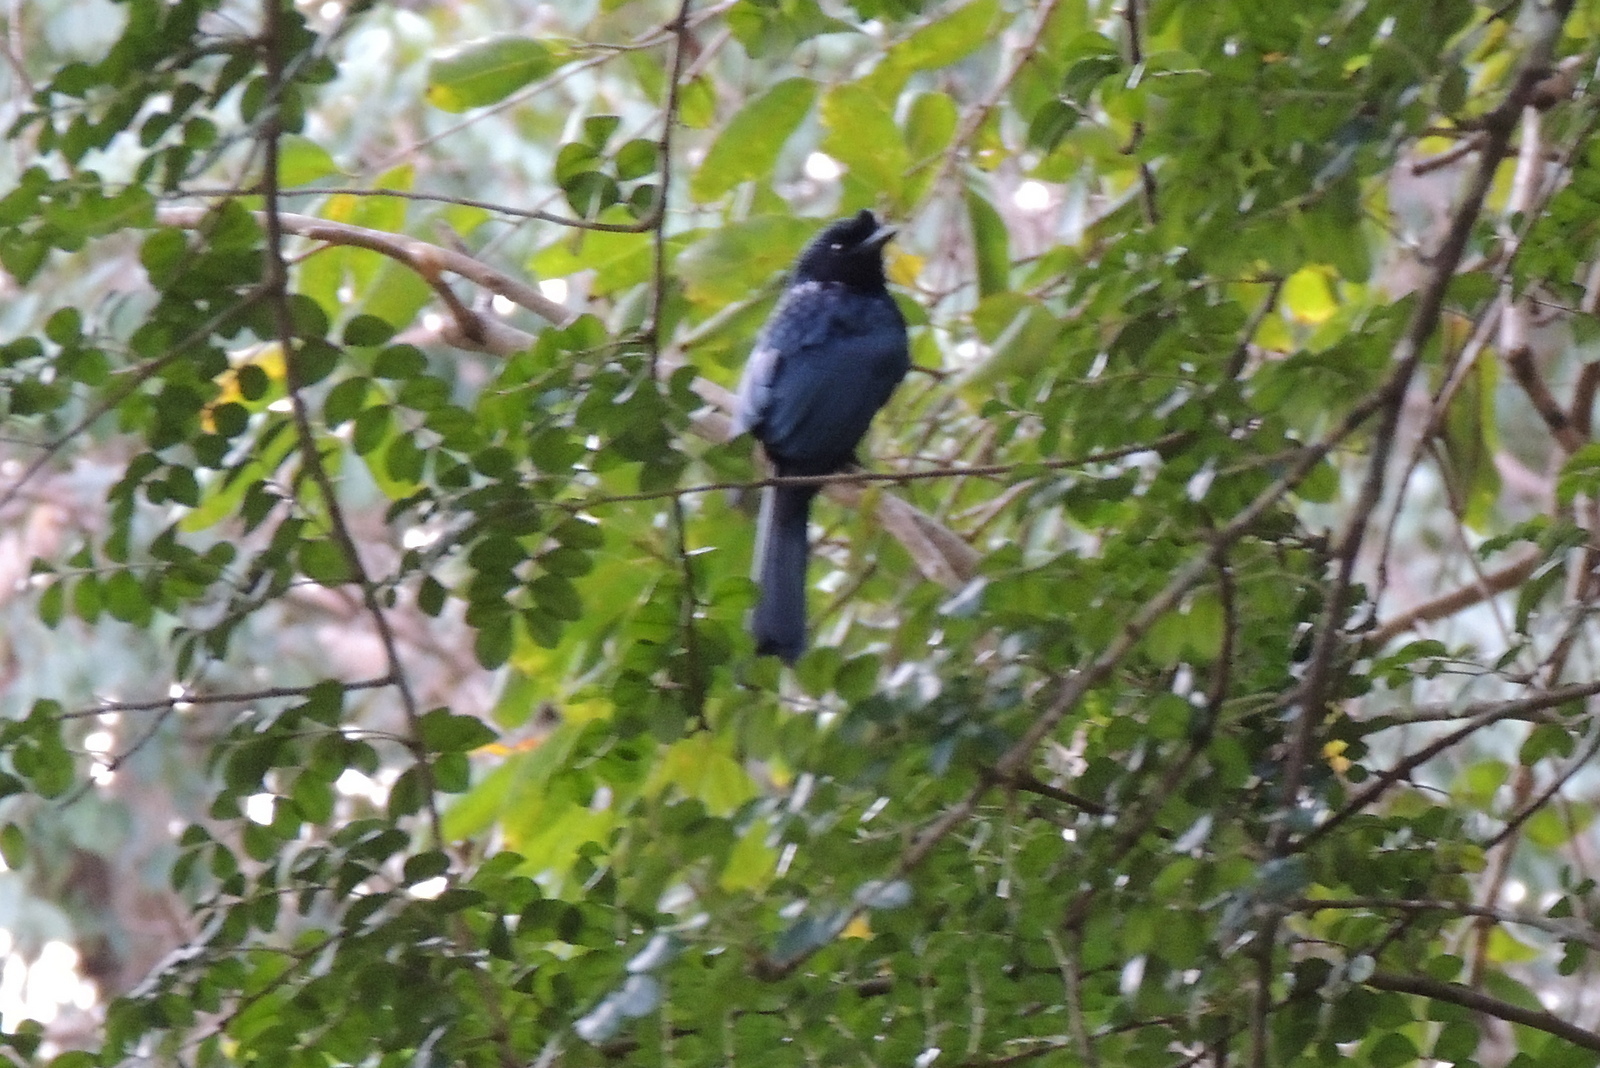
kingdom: Animalia
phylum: Chordata
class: Aves
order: Passeriformes
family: Dicruridae
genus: Dicrurus
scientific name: Dicrurus paradiseus
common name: Greater racket-tailed drongo
